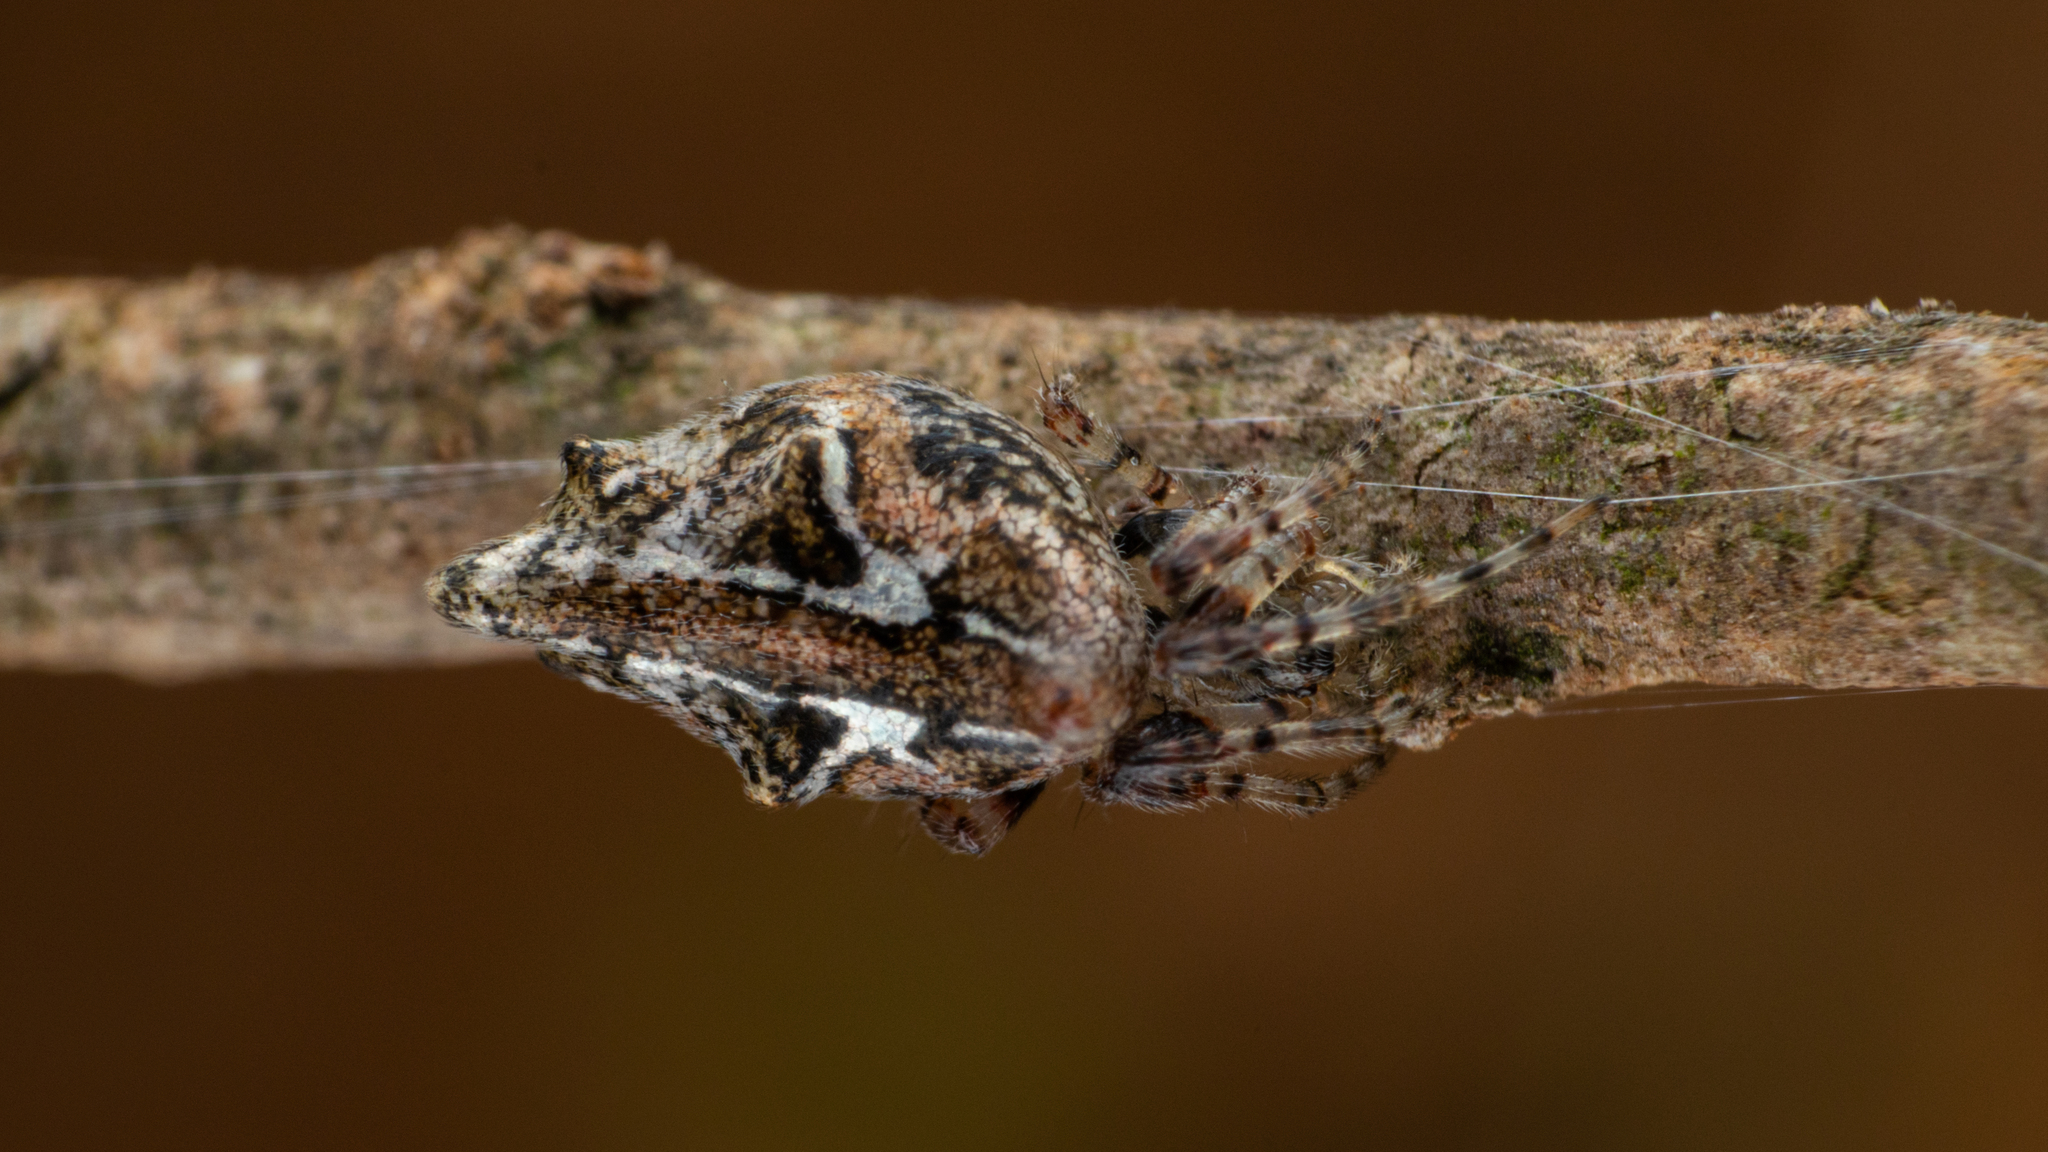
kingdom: Animalia
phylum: Arthropoda
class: Arachnida
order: Araneae
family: Araneidae
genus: Cyclosa
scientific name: Cyclosa insulana
